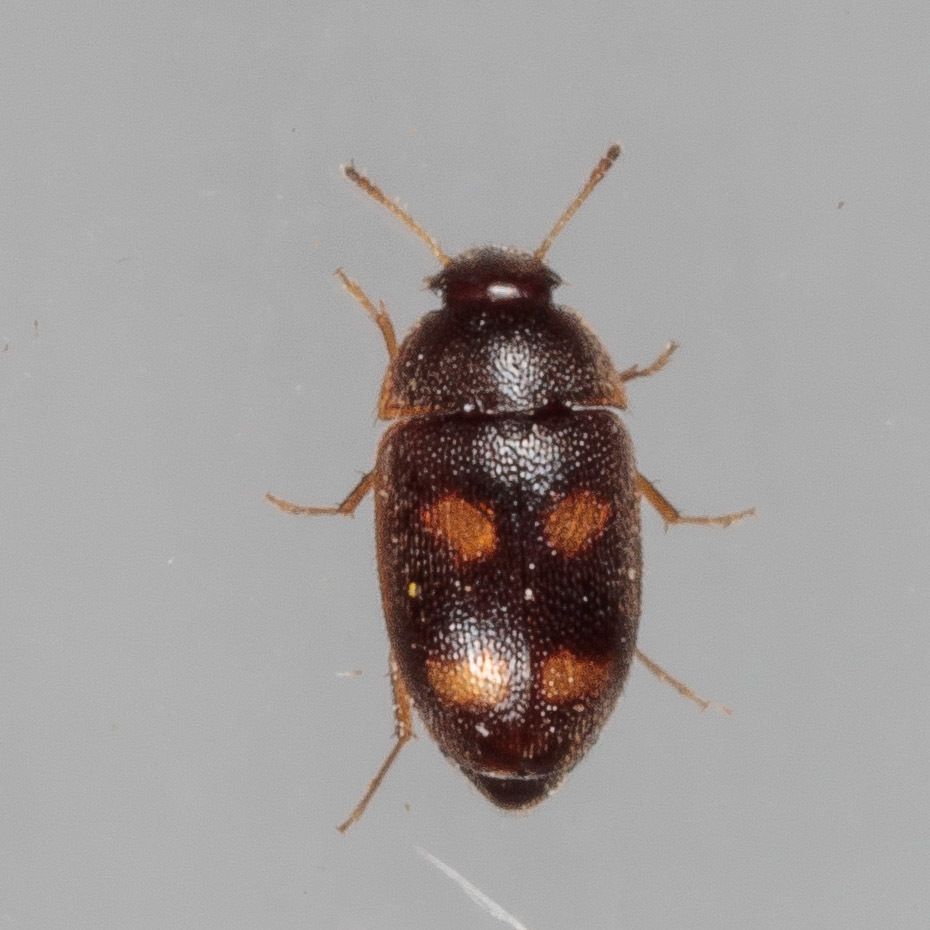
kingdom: Animalia
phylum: Arthropoda
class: Insecta
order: Coleoptera
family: Mycetophagidae
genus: Litargus
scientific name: Litargus tetraspilotus
